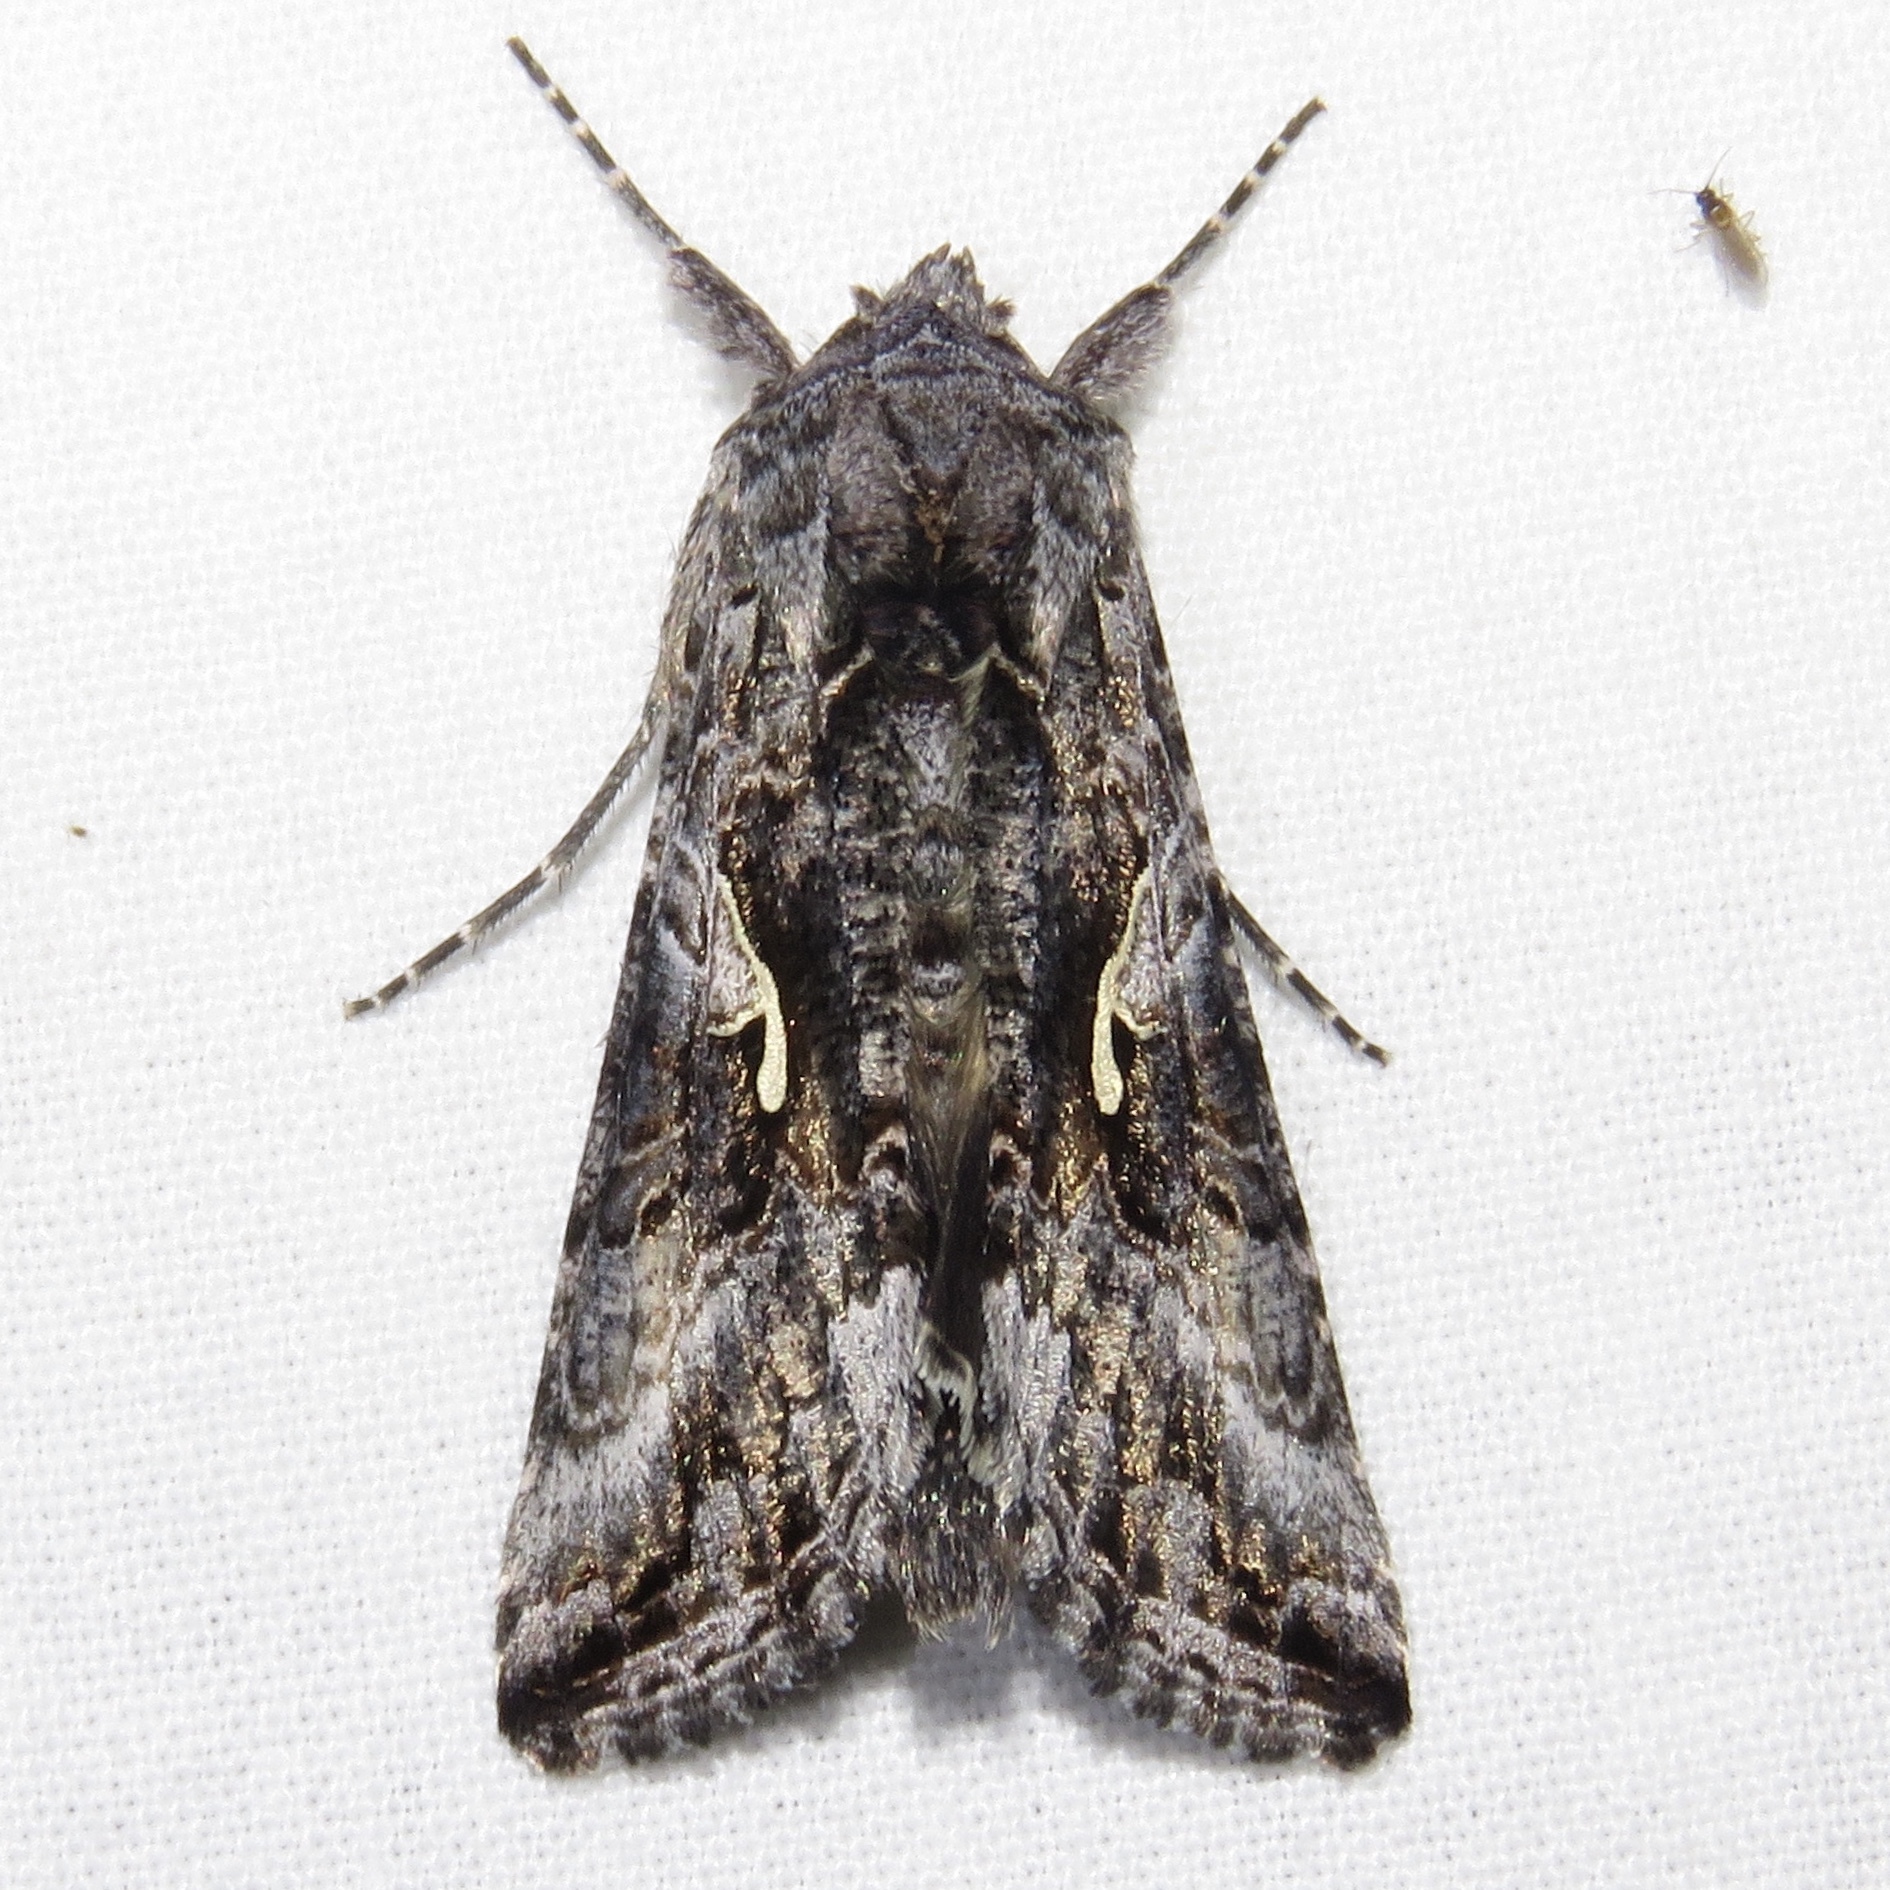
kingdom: Animalia
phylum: Arthropoda
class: Insecta
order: Lepidoptera
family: Noctuidae
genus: Autographa
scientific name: Autographa californica
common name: Alfalfa looper
